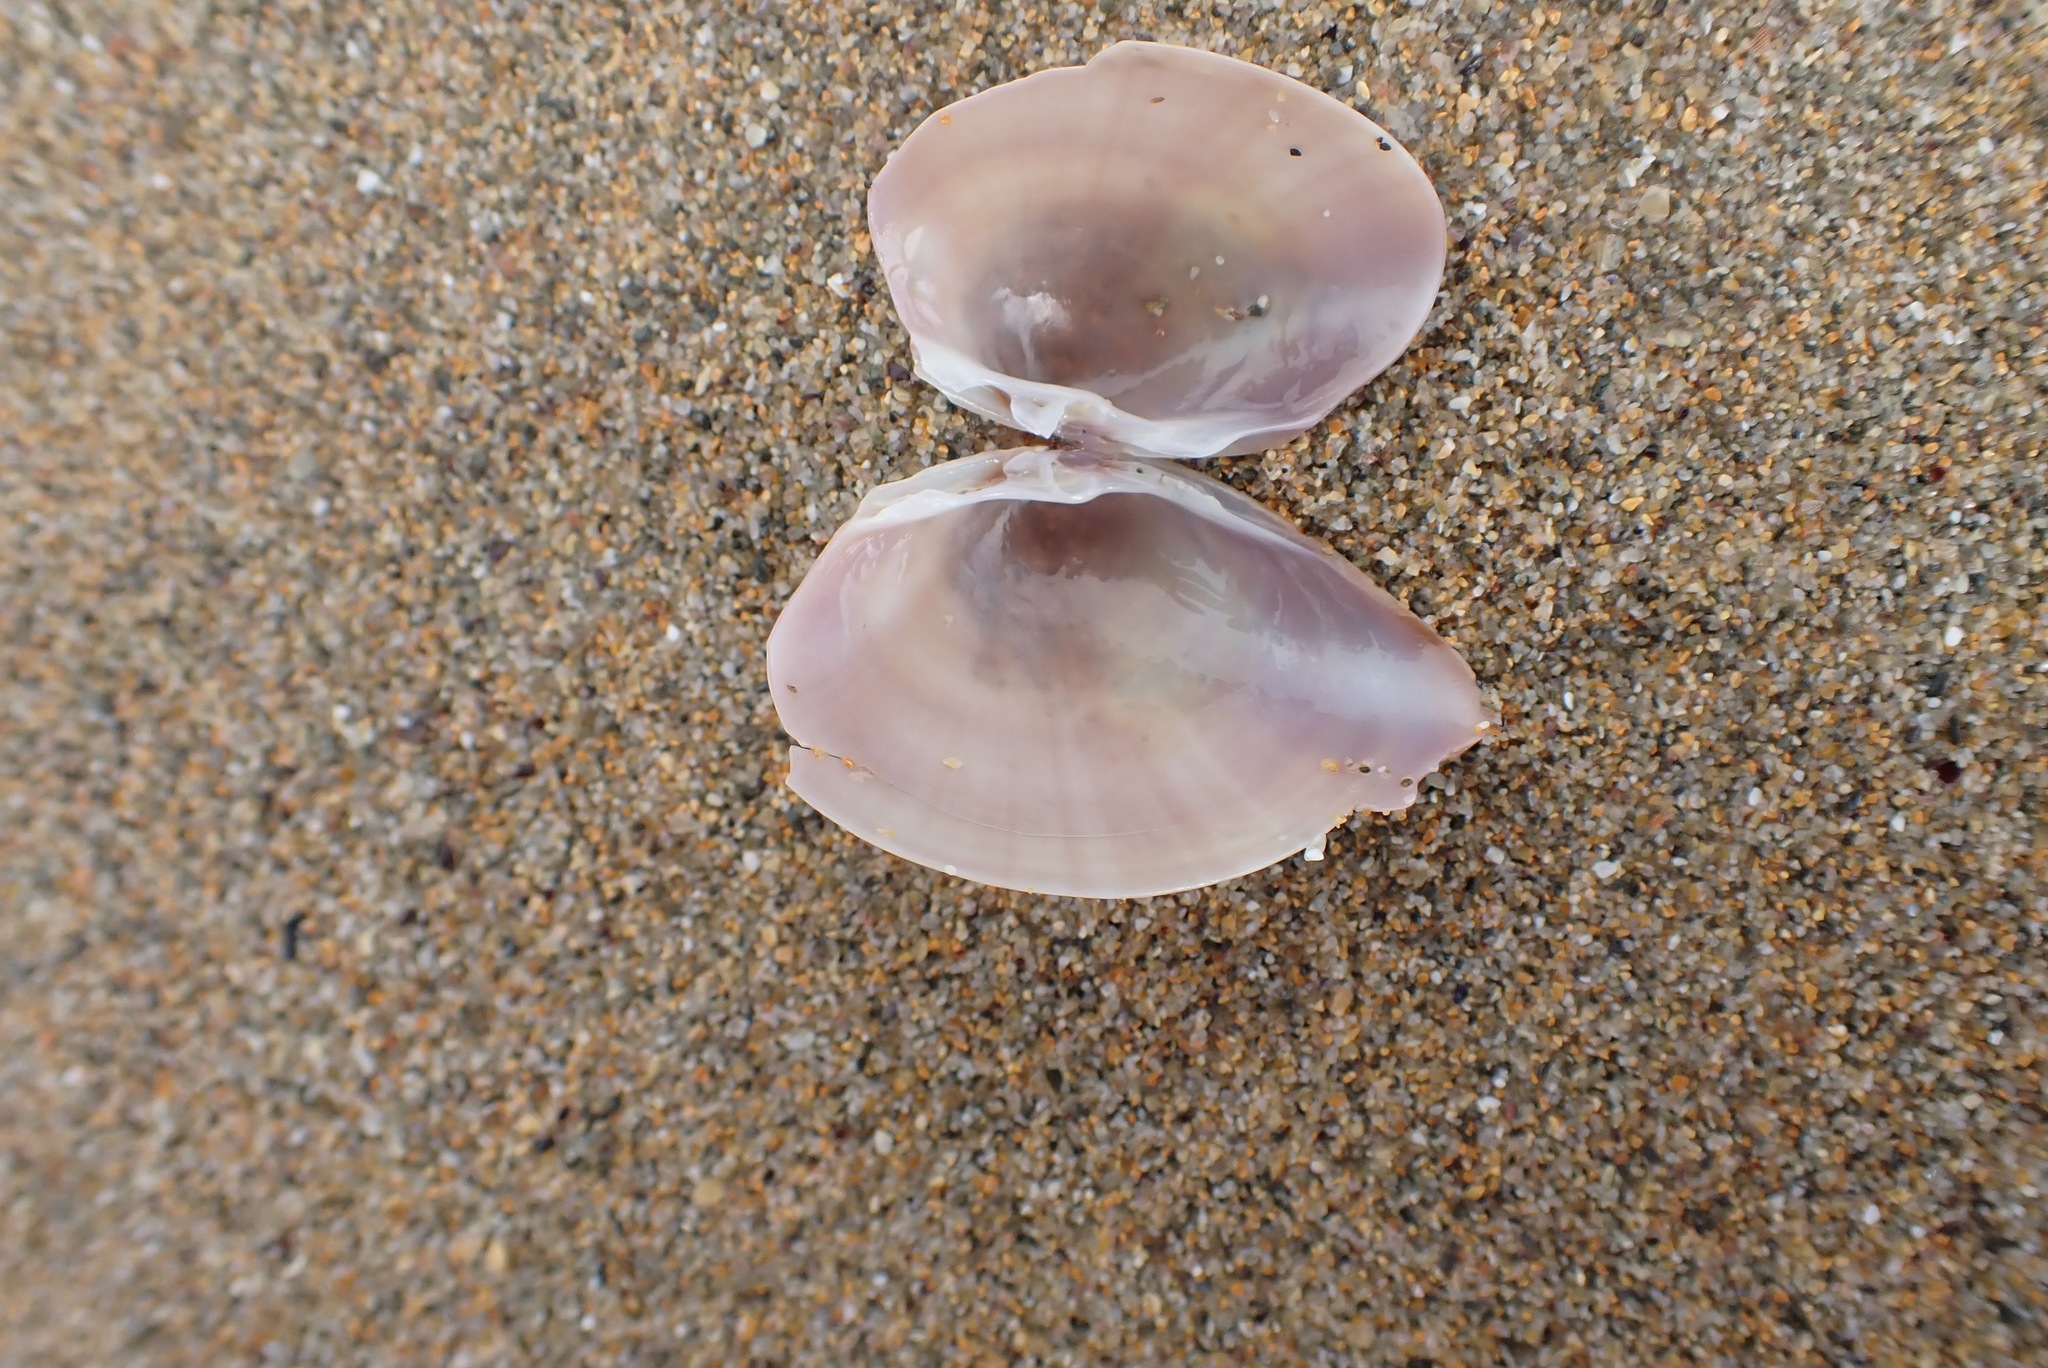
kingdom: Animalia
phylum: Mollusca
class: Bivalvia
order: Venerida
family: Mactridae
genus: Mactra
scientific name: Mactra stultorum
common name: Rayed trough shell
